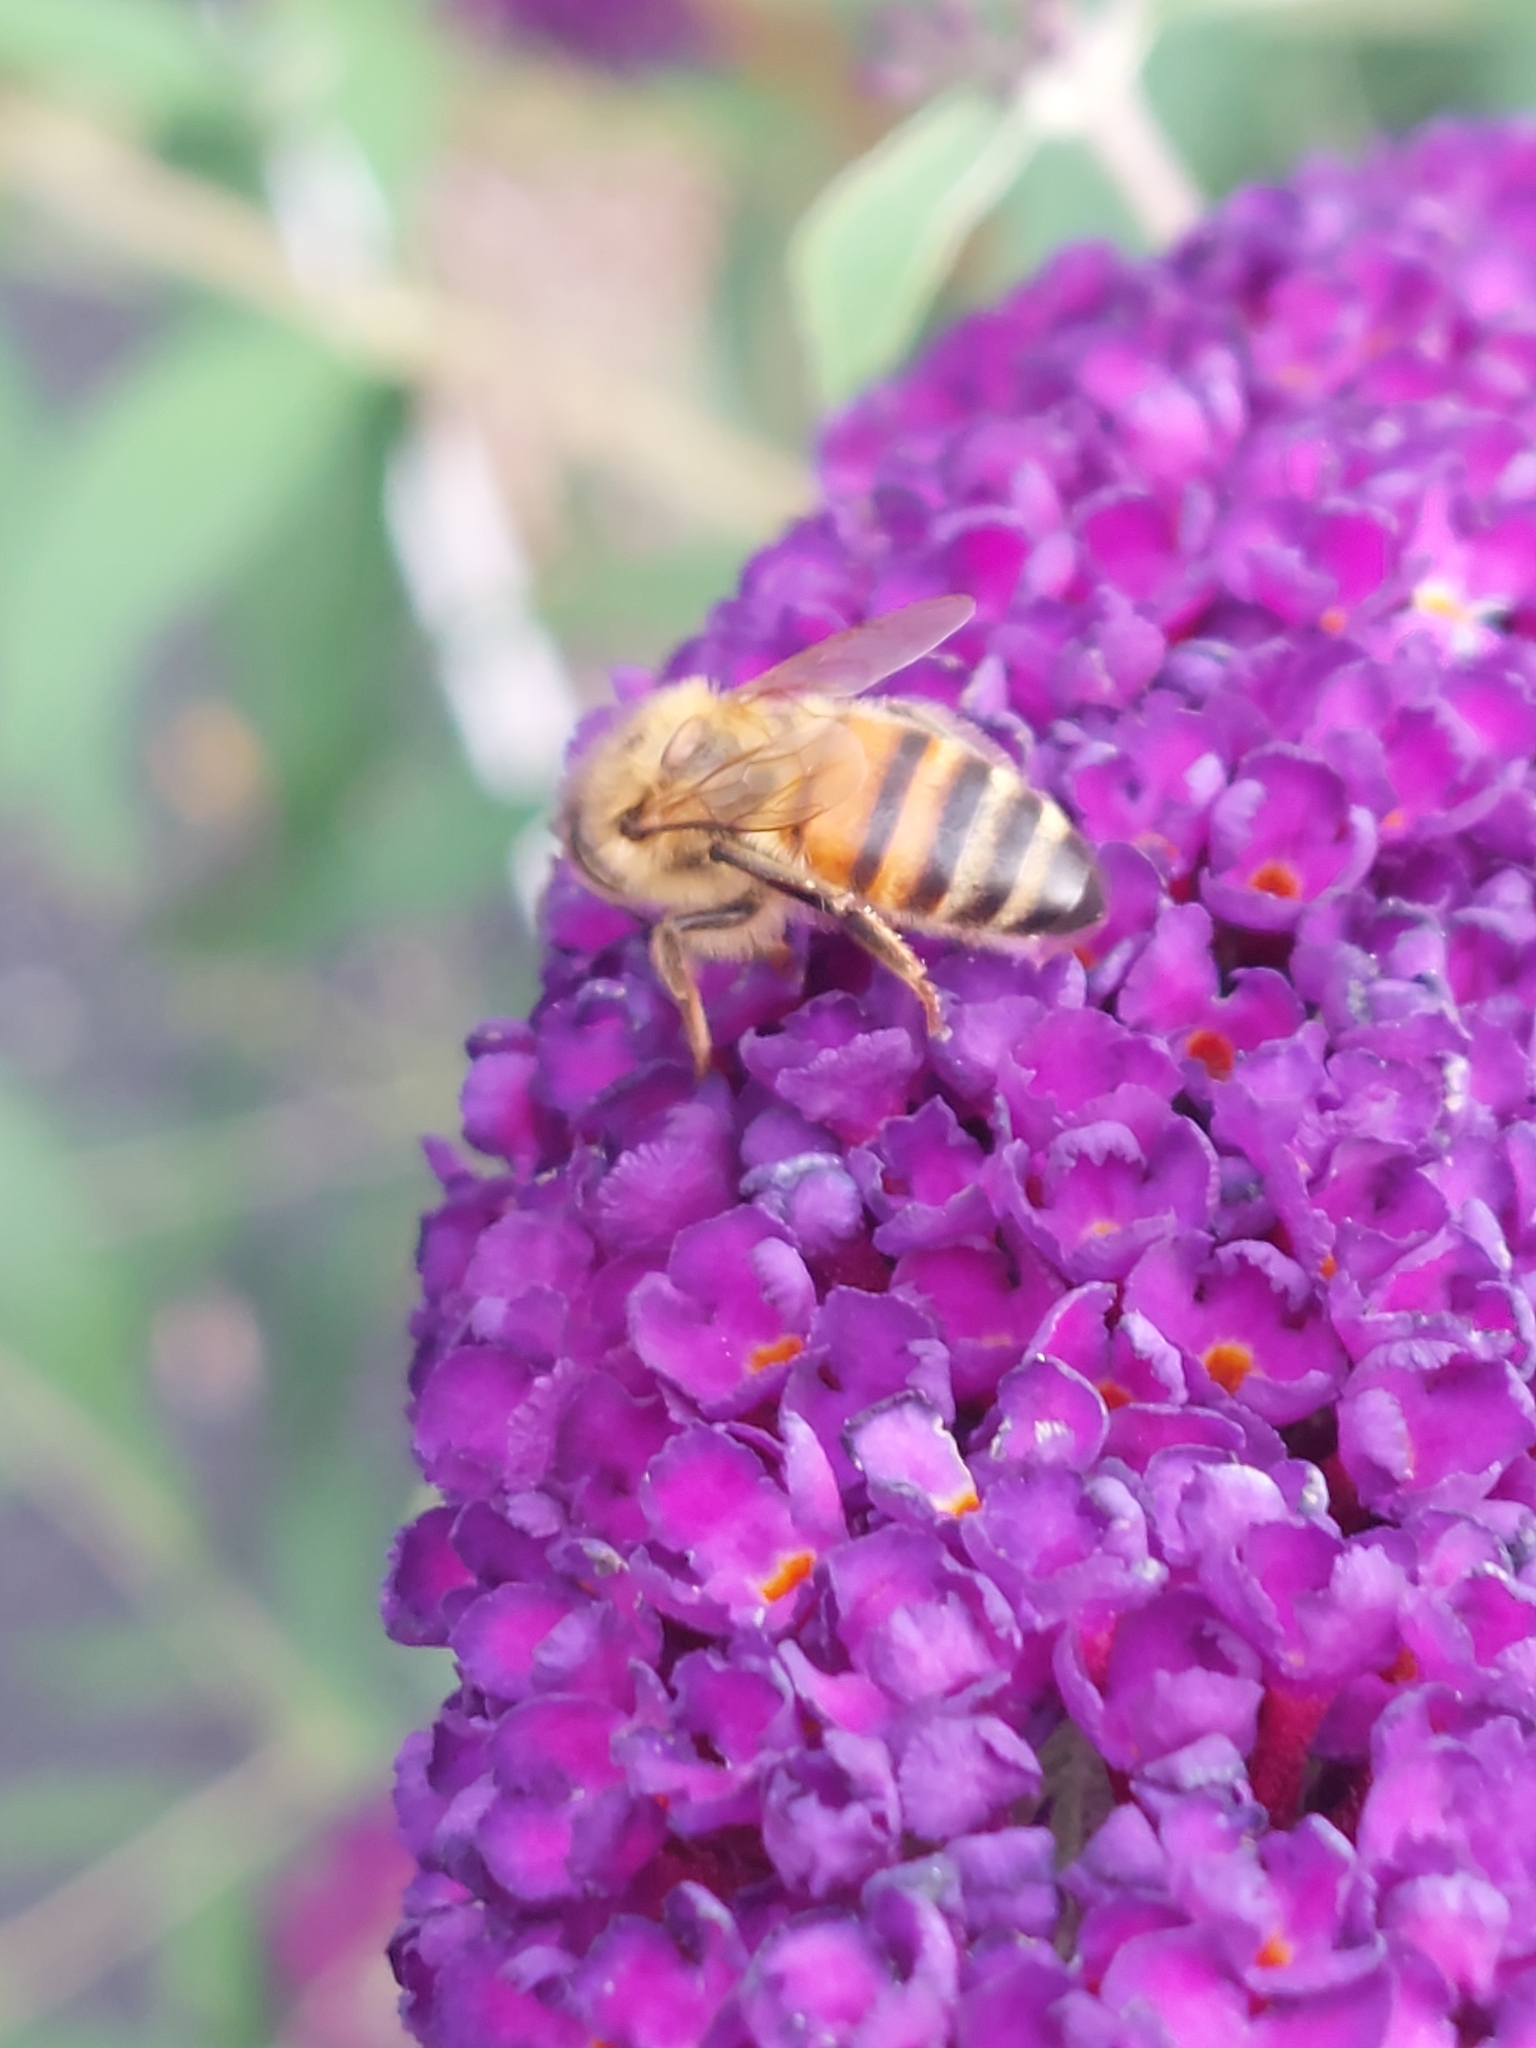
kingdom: Animalia
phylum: Arthropoda
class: Insecta
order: Hymenoptera
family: Apidae
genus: Apis
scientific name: Apis mellifera
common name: Honey bee
